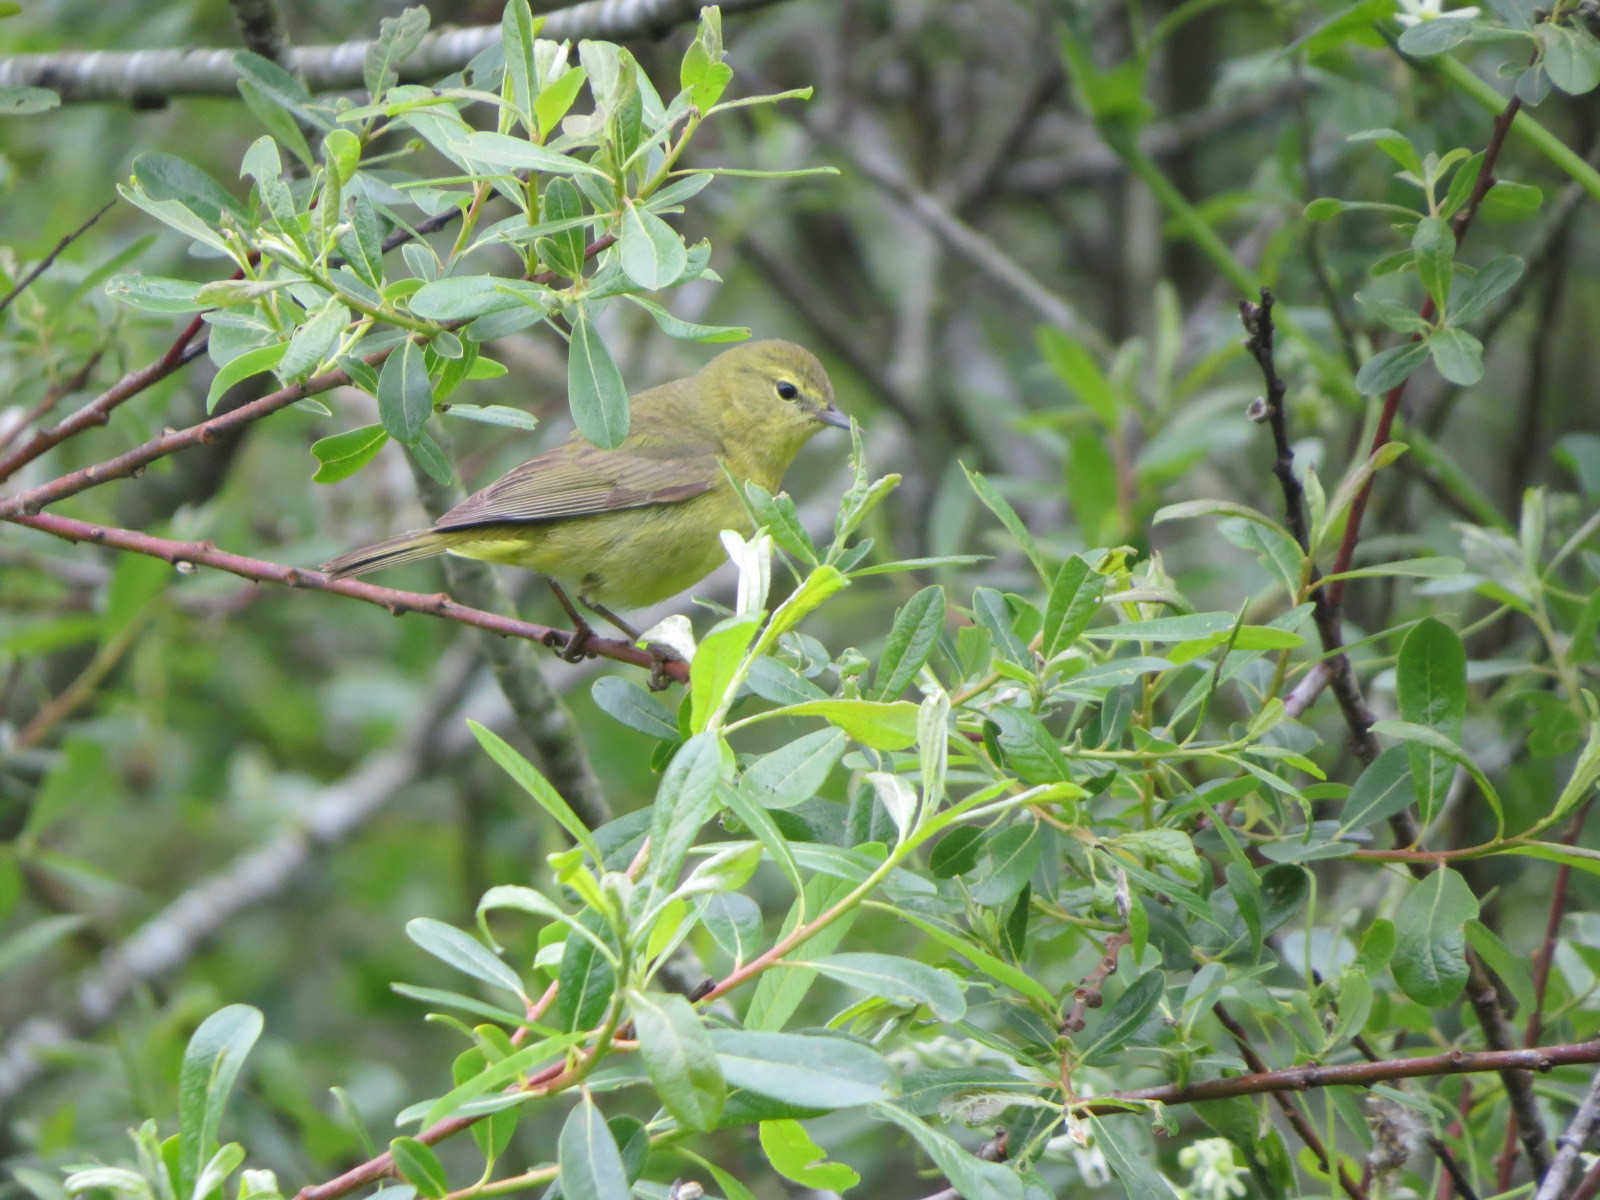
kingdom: Animalia
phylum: Chordata
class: Aves
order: Passeriformes
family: Parulidae
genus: Leiothlypis
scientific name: Leiothlypis celata
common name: Orange-crowned warbler
